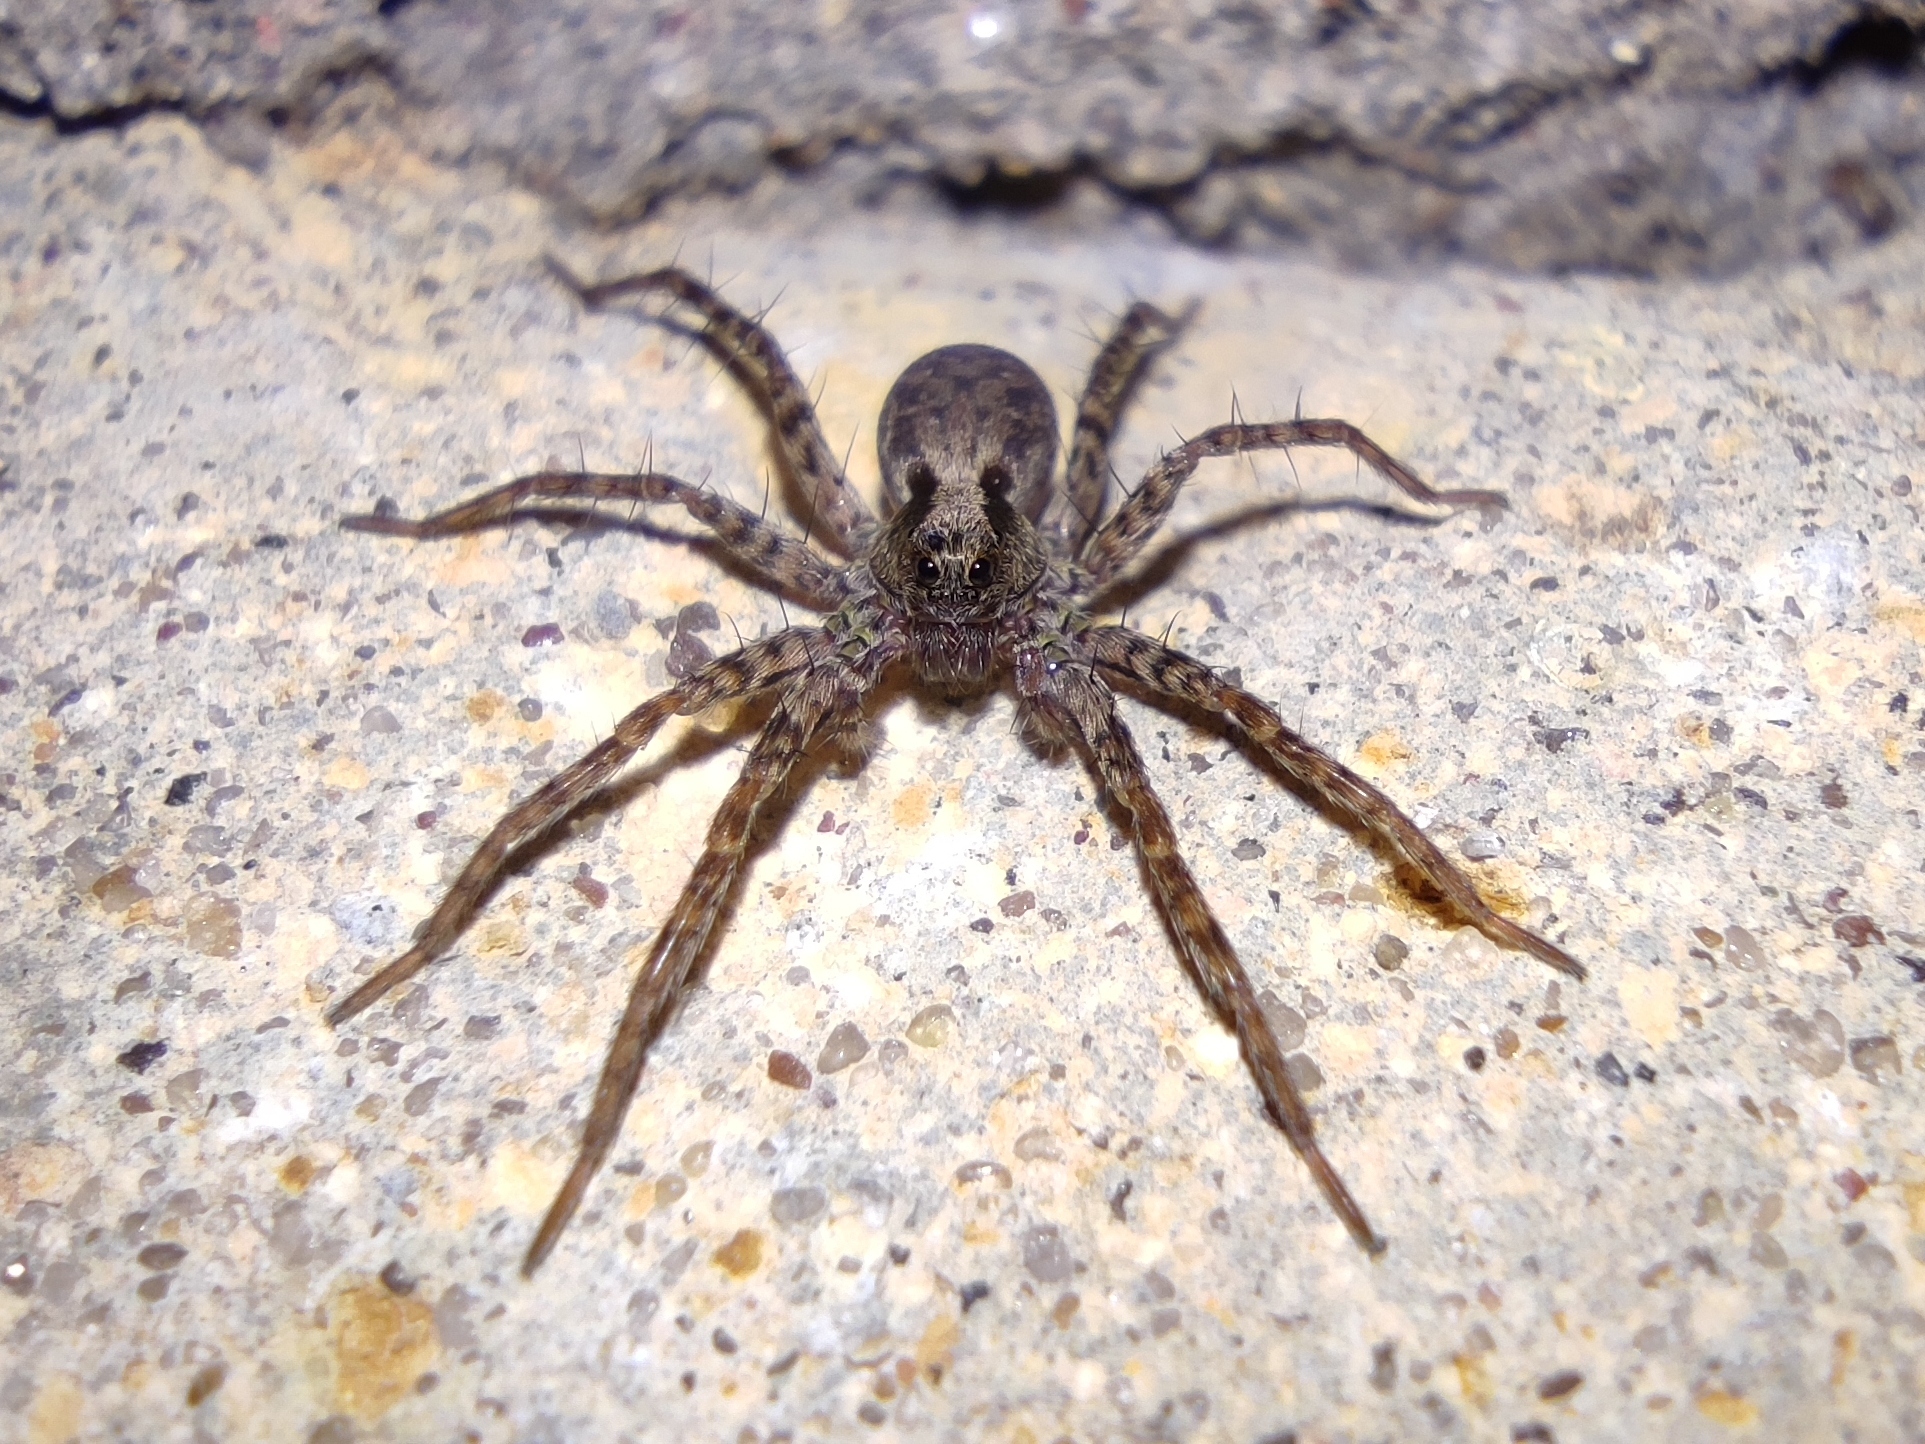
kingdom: Animalia
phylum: Arthropoda
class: Arachnida
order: Araneae
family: Lycosidae
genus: Pardosa
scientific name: Pardosa
